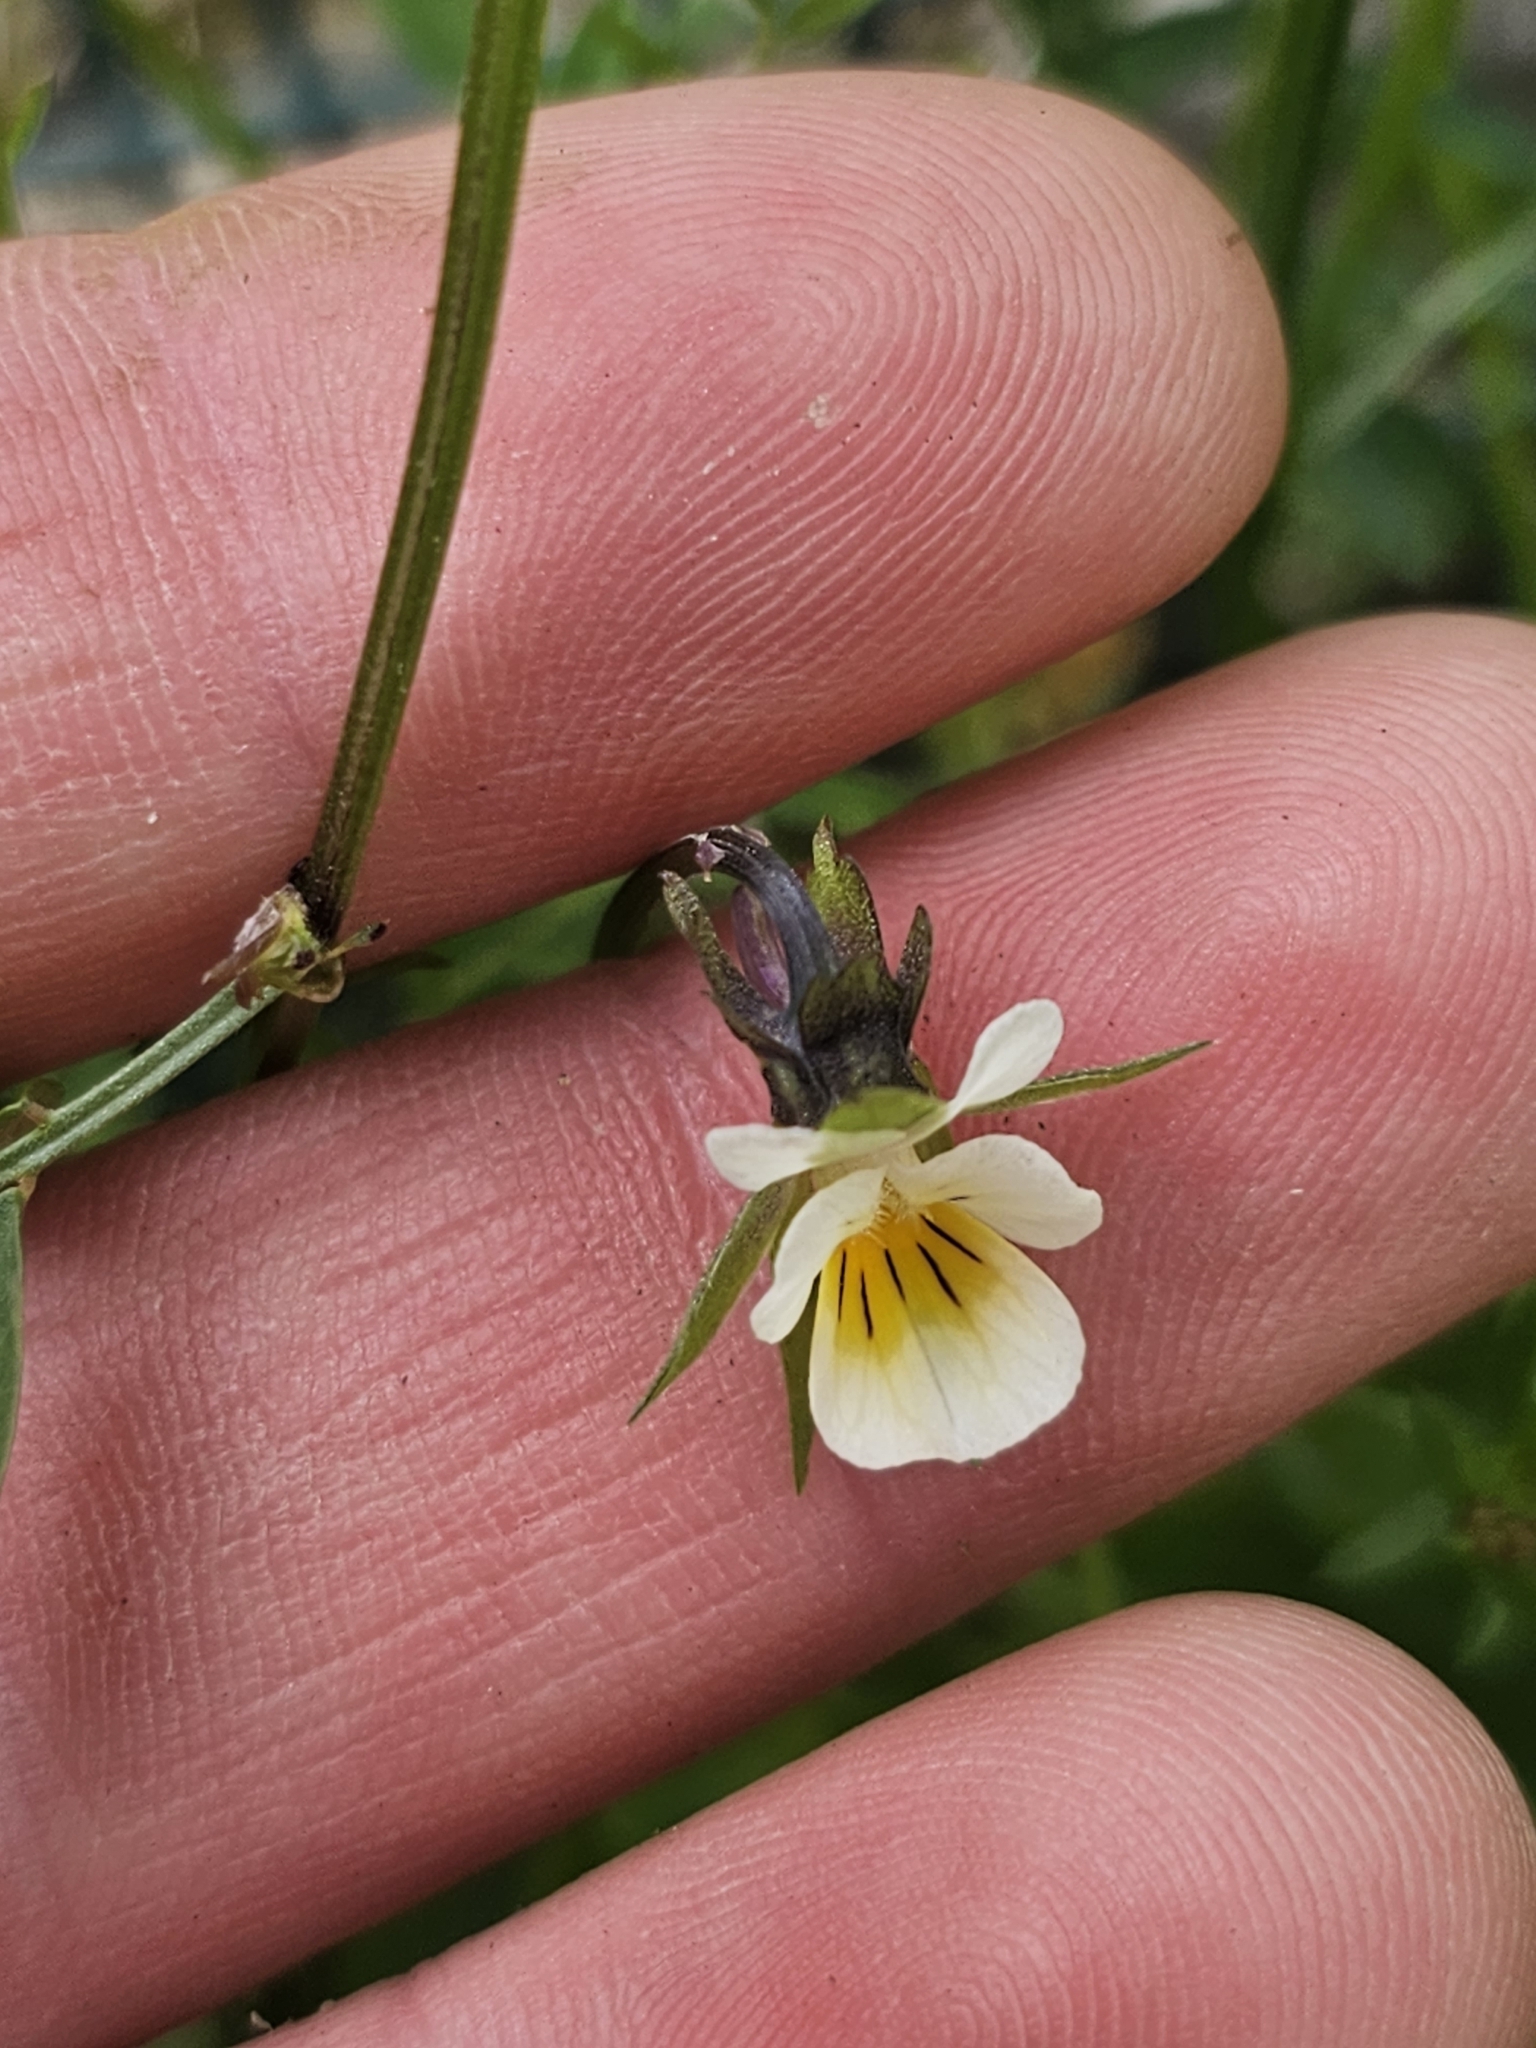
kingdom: Plantae
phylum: Tracheophyta
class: Magnoliopsida
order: Malpighiales
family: Violaceae
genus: Viola
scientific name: Viola arvensis
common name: Field pansy
